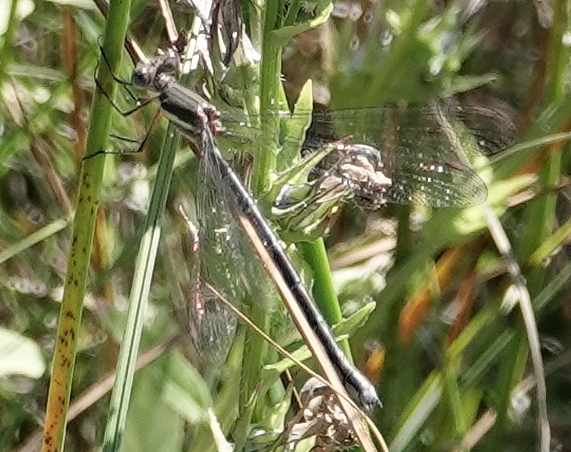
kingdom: Animalia
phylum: Arthropoda
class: Insecta
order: Odonata
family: Lestidae
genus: Archilestes
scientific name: Archilestes grandis
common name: Great spreadwing
